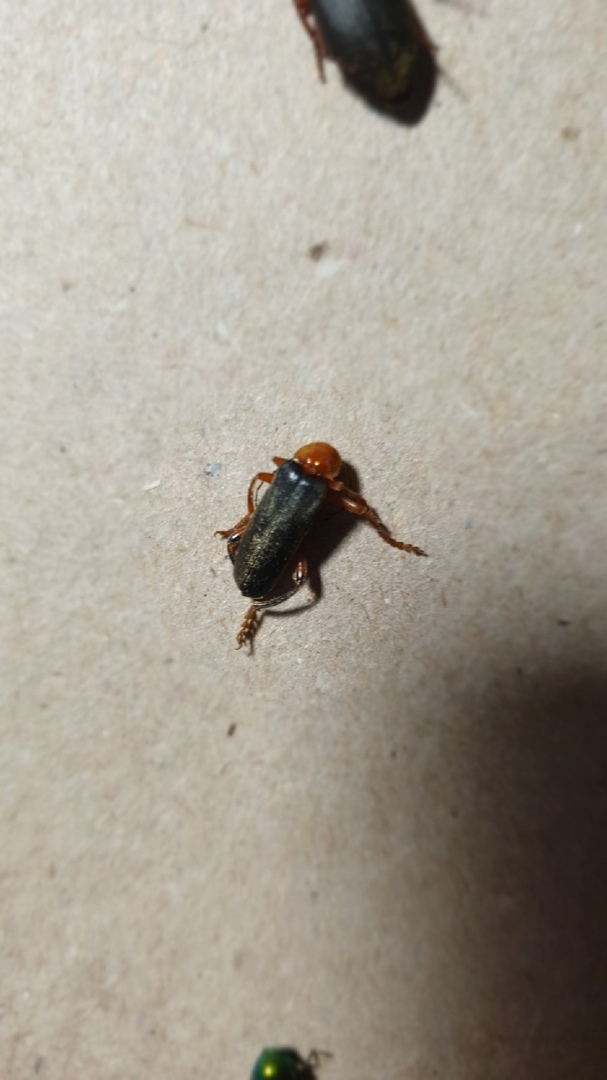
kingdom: Animalia
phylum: Arthropoda
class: Insecta
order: Coleoptera
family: Cantharidae
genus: Cantharis
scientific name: Cantharis livida
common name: Livid soldier beetle
